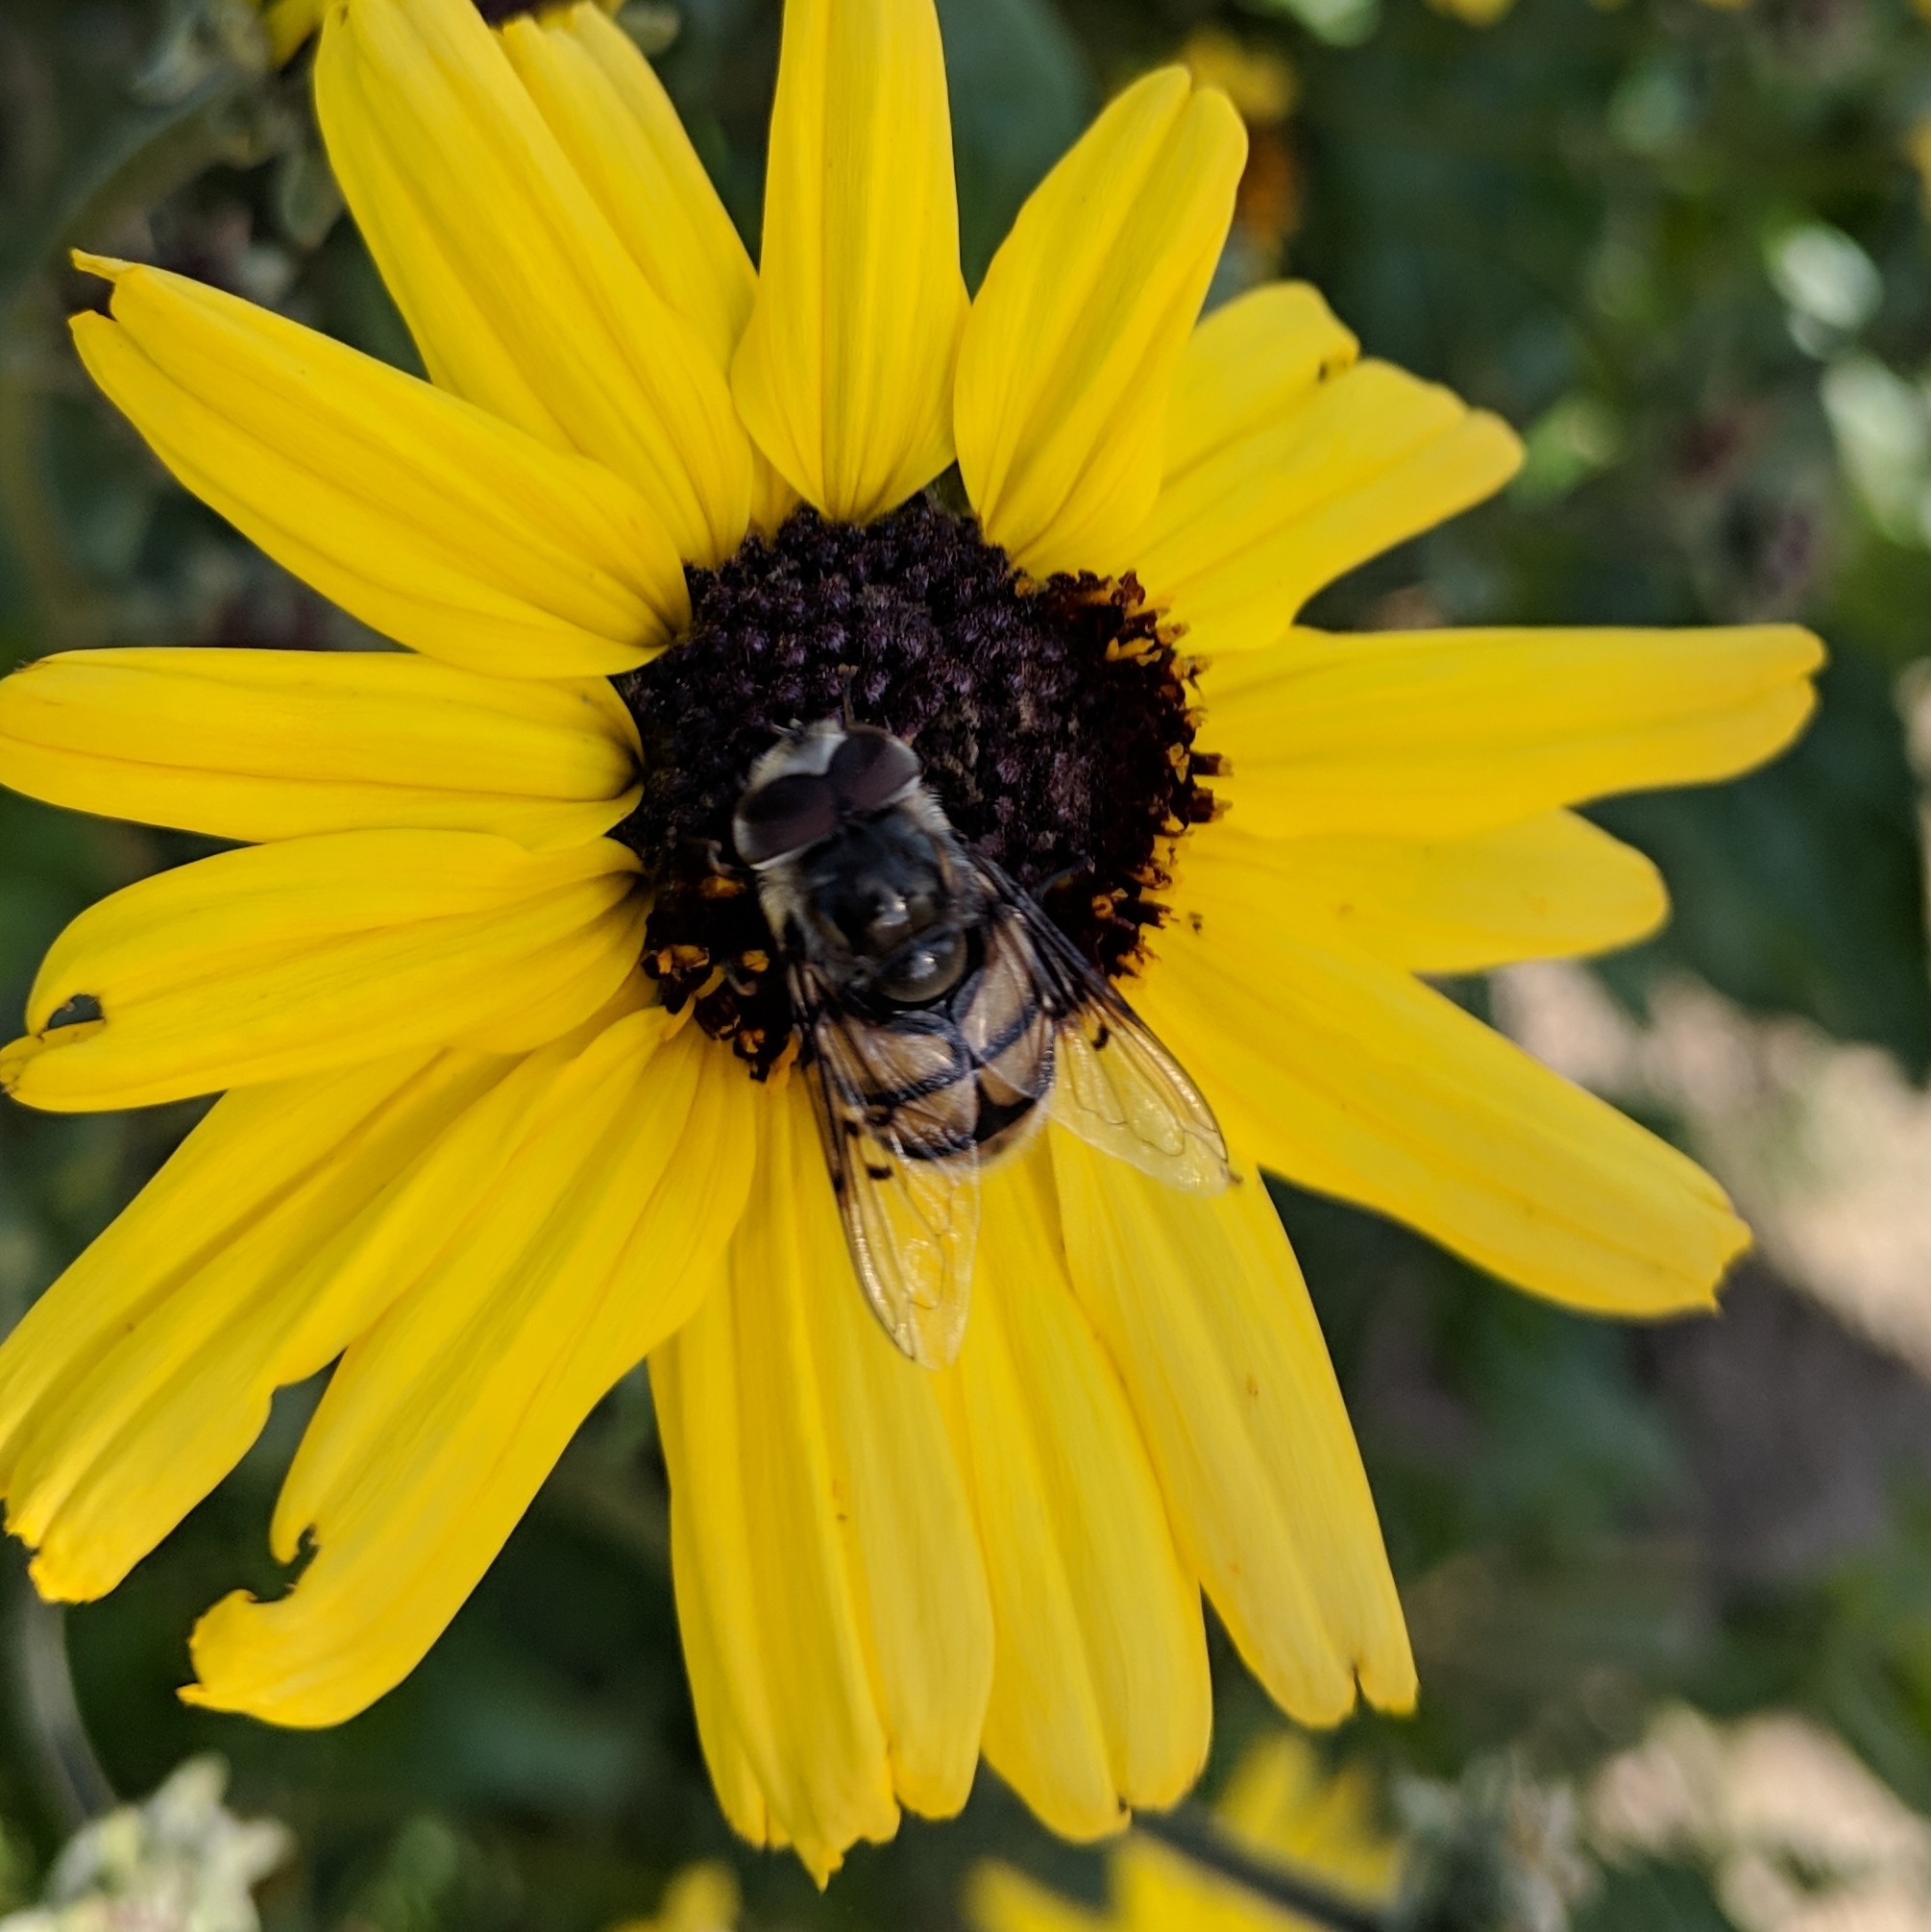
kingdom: Animalia
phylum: Arthropoda
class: Insecta
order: Diptera
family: Syrphidae
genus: Copestylum
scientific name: Copestylum avidum
